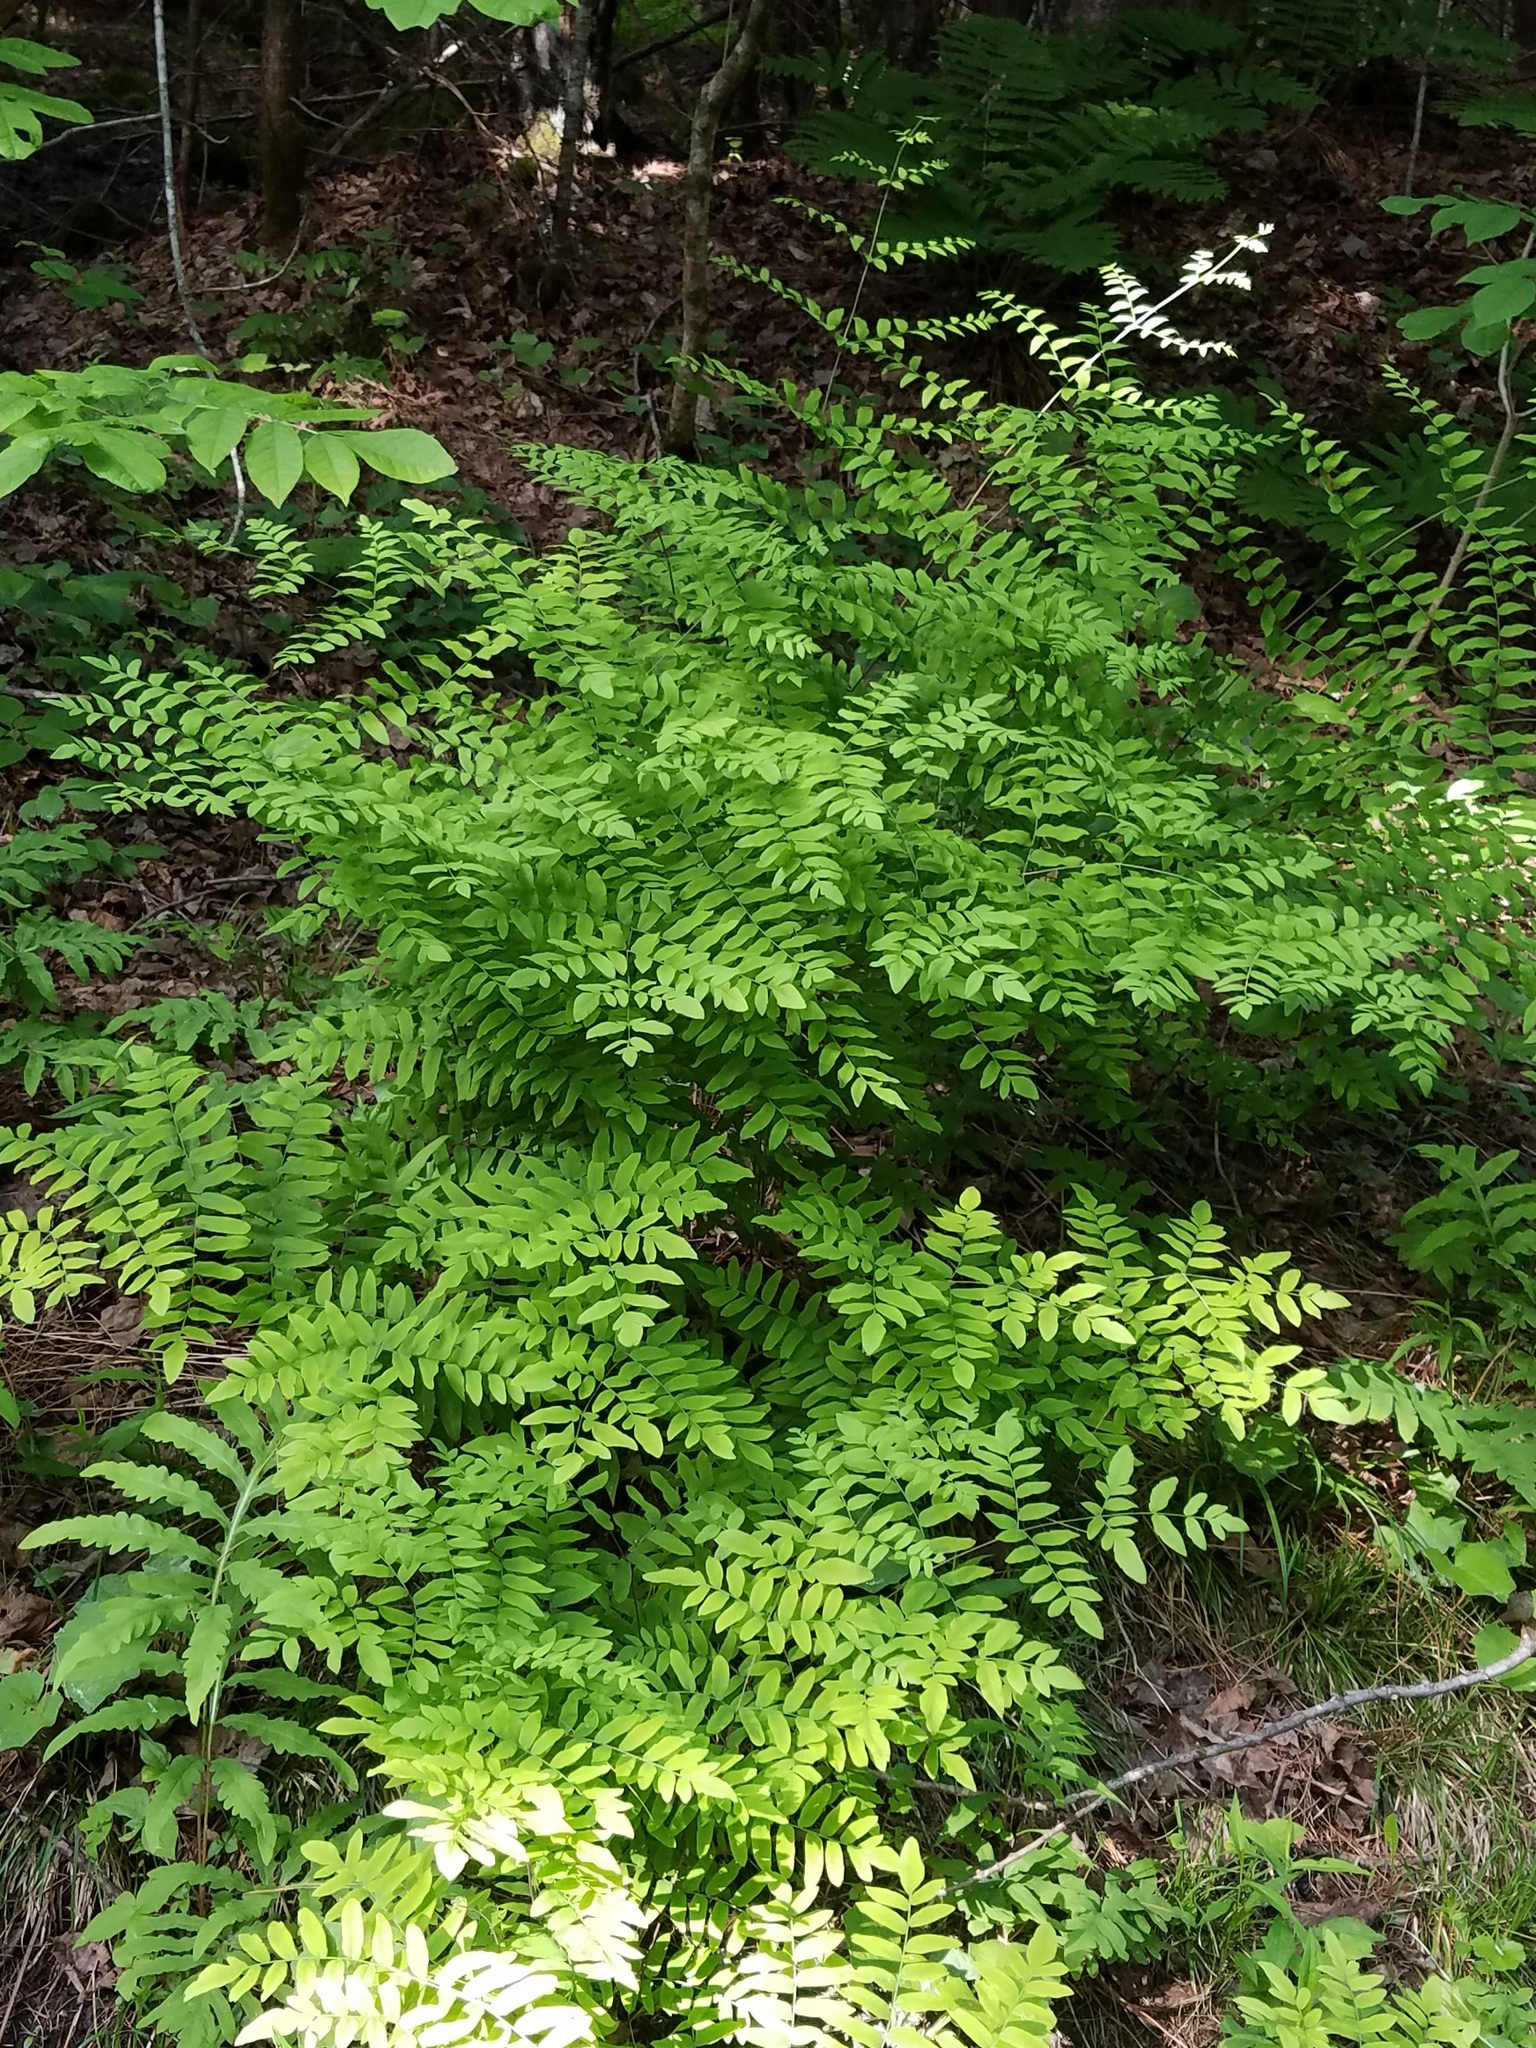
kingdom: Plantae
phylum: Tracheophyta
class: Polypodiopsida
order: Osmundales
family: Osmundaceae
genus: Osmunda
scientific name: Osmunda spectabilis
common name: American royal fern
